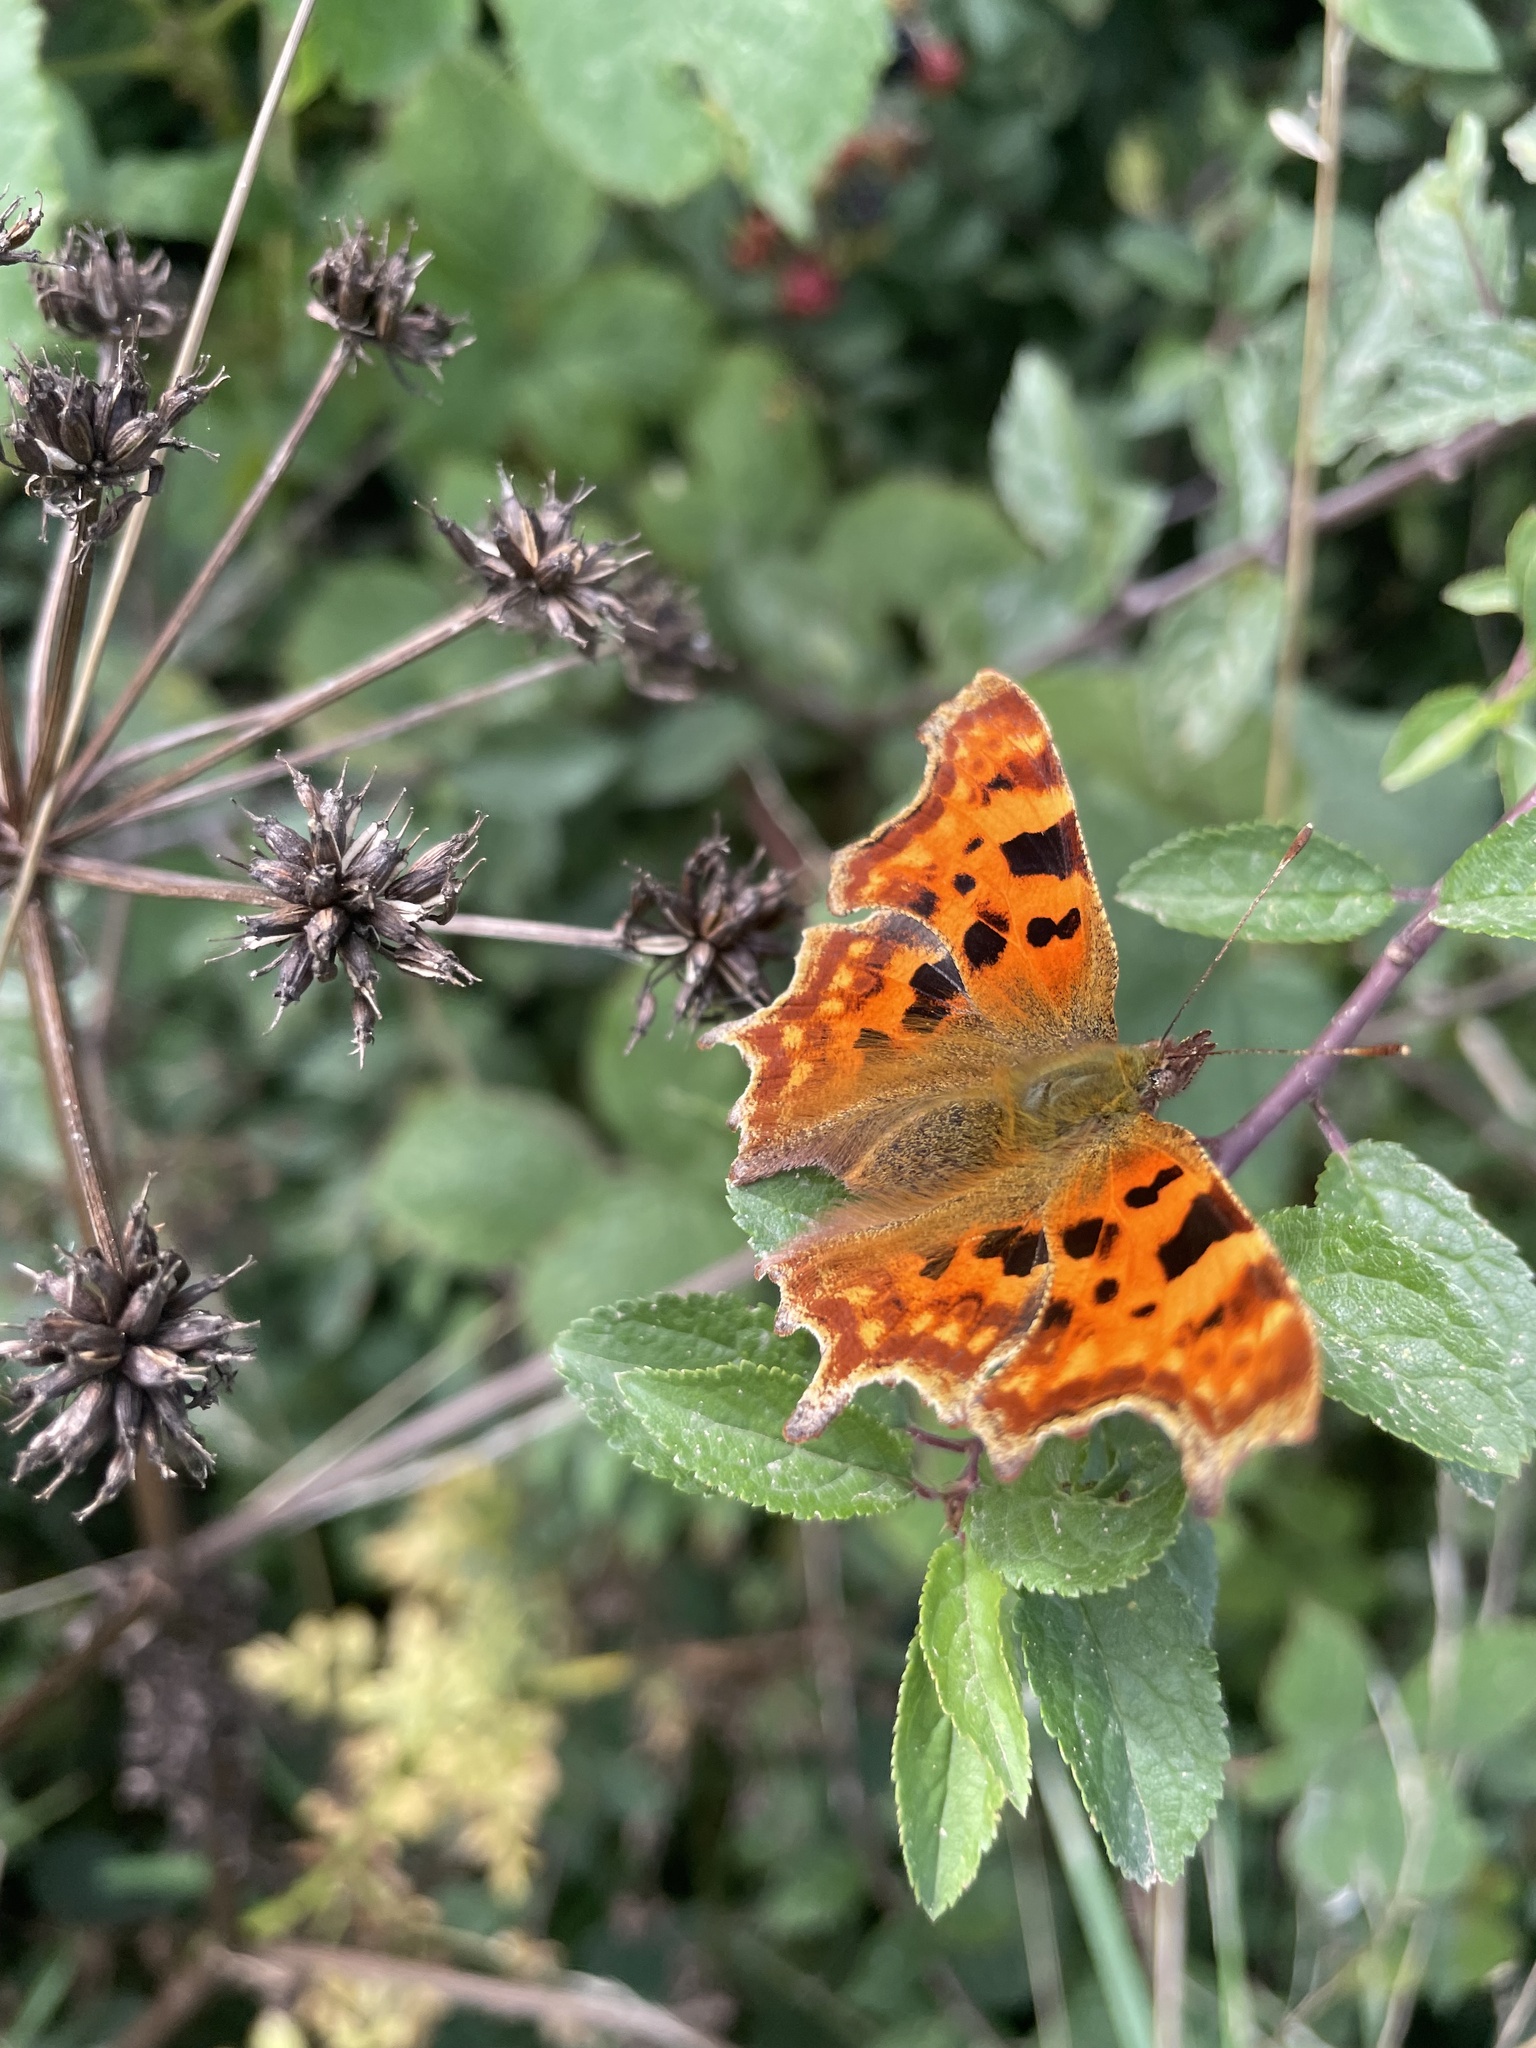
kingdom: Animalia
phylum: Arthropoda
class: Insecta
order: Lepidoptera
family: Nymphalidae
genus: Polygonia
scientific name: Polygonia c-album
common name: Comma
